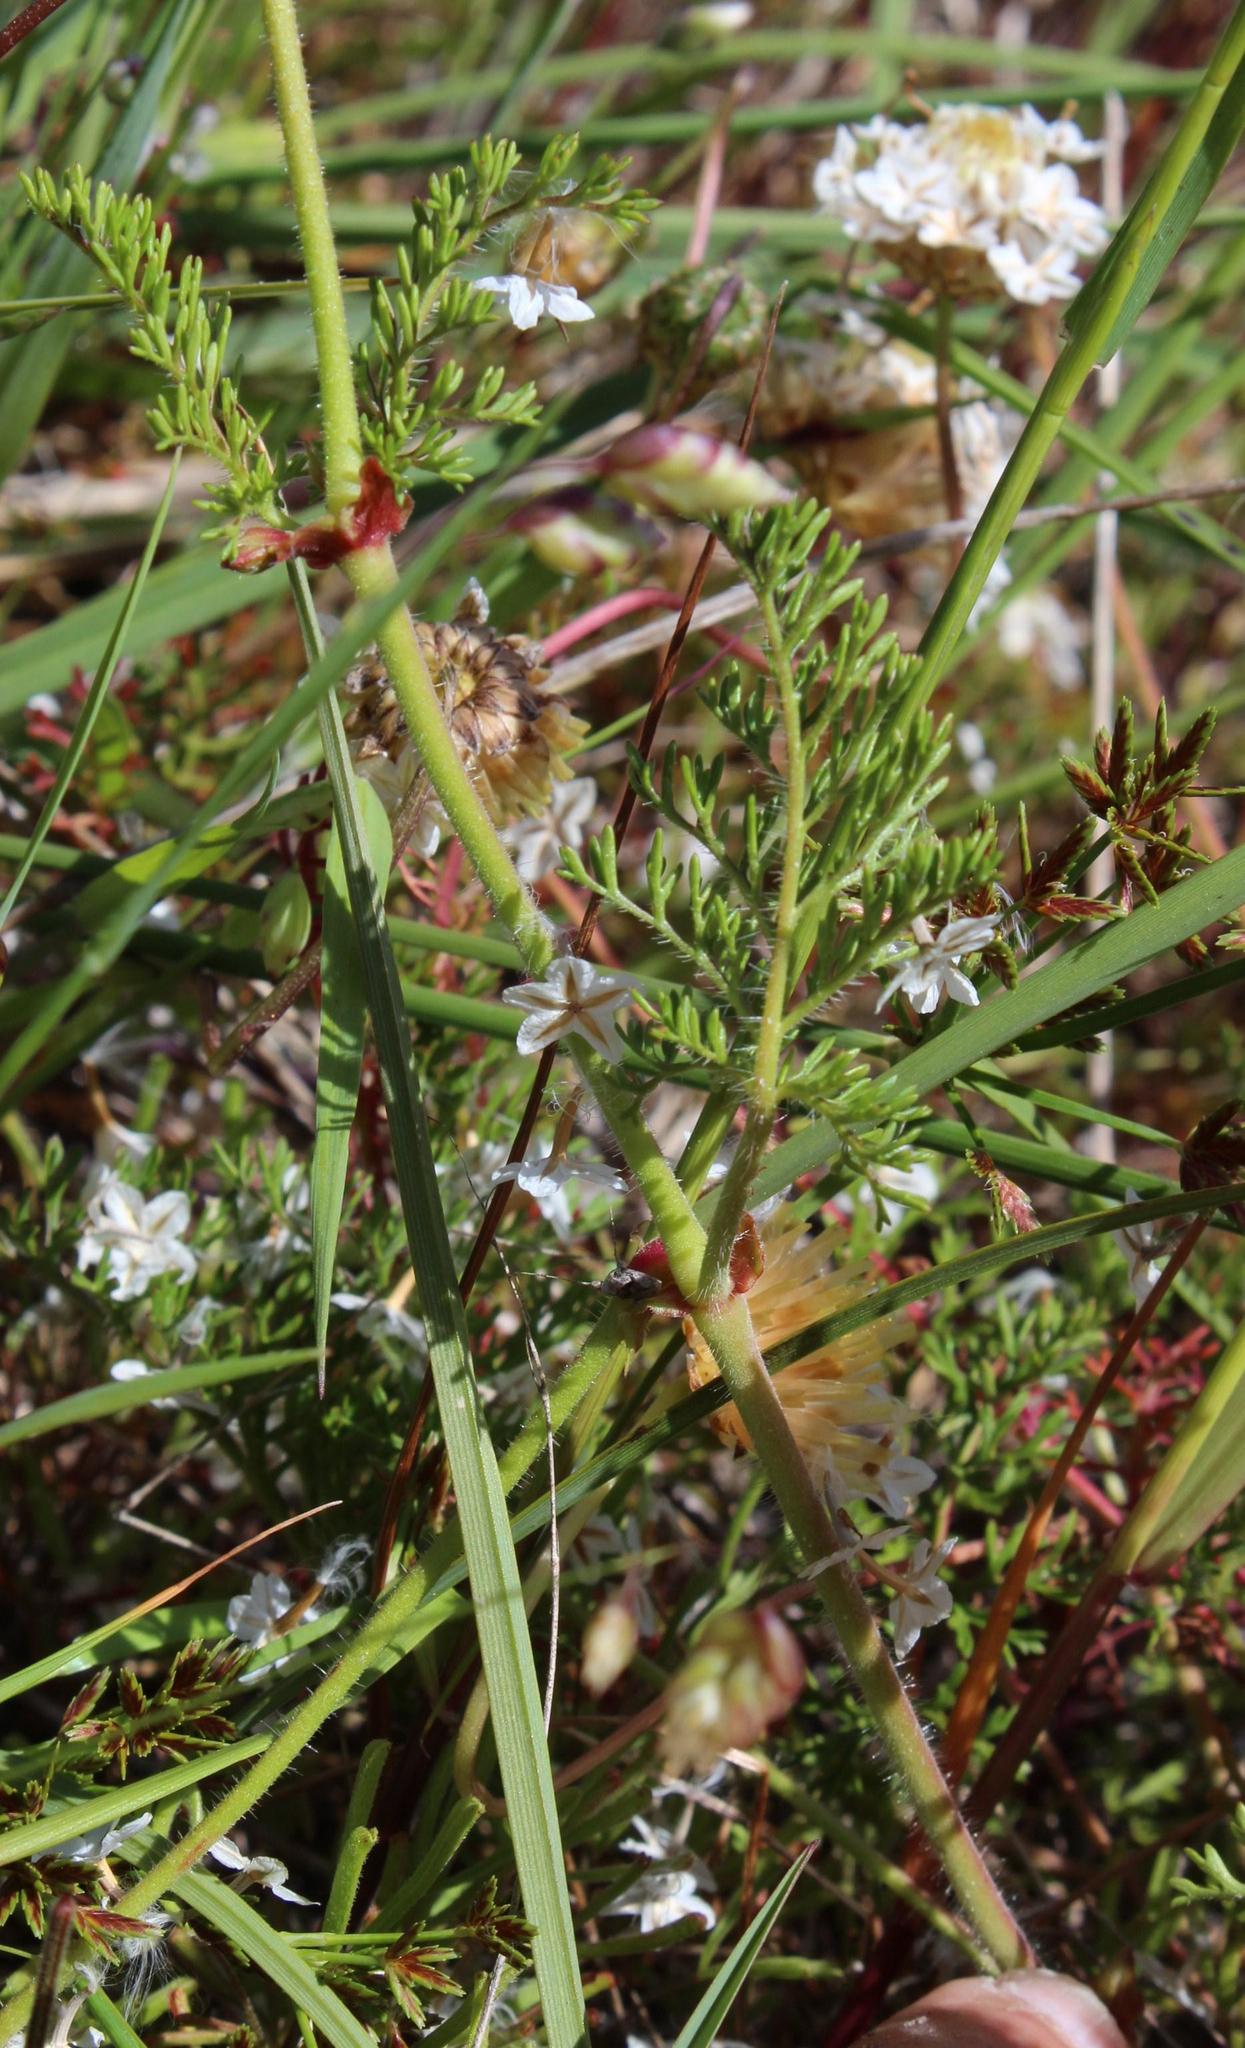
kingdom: Plantae
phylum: Tracheophyta
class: Magnoliopsida
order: Geraniales
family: Geraniaceae
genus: Pelargonium
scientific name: Pelargonium myrrhifolium
